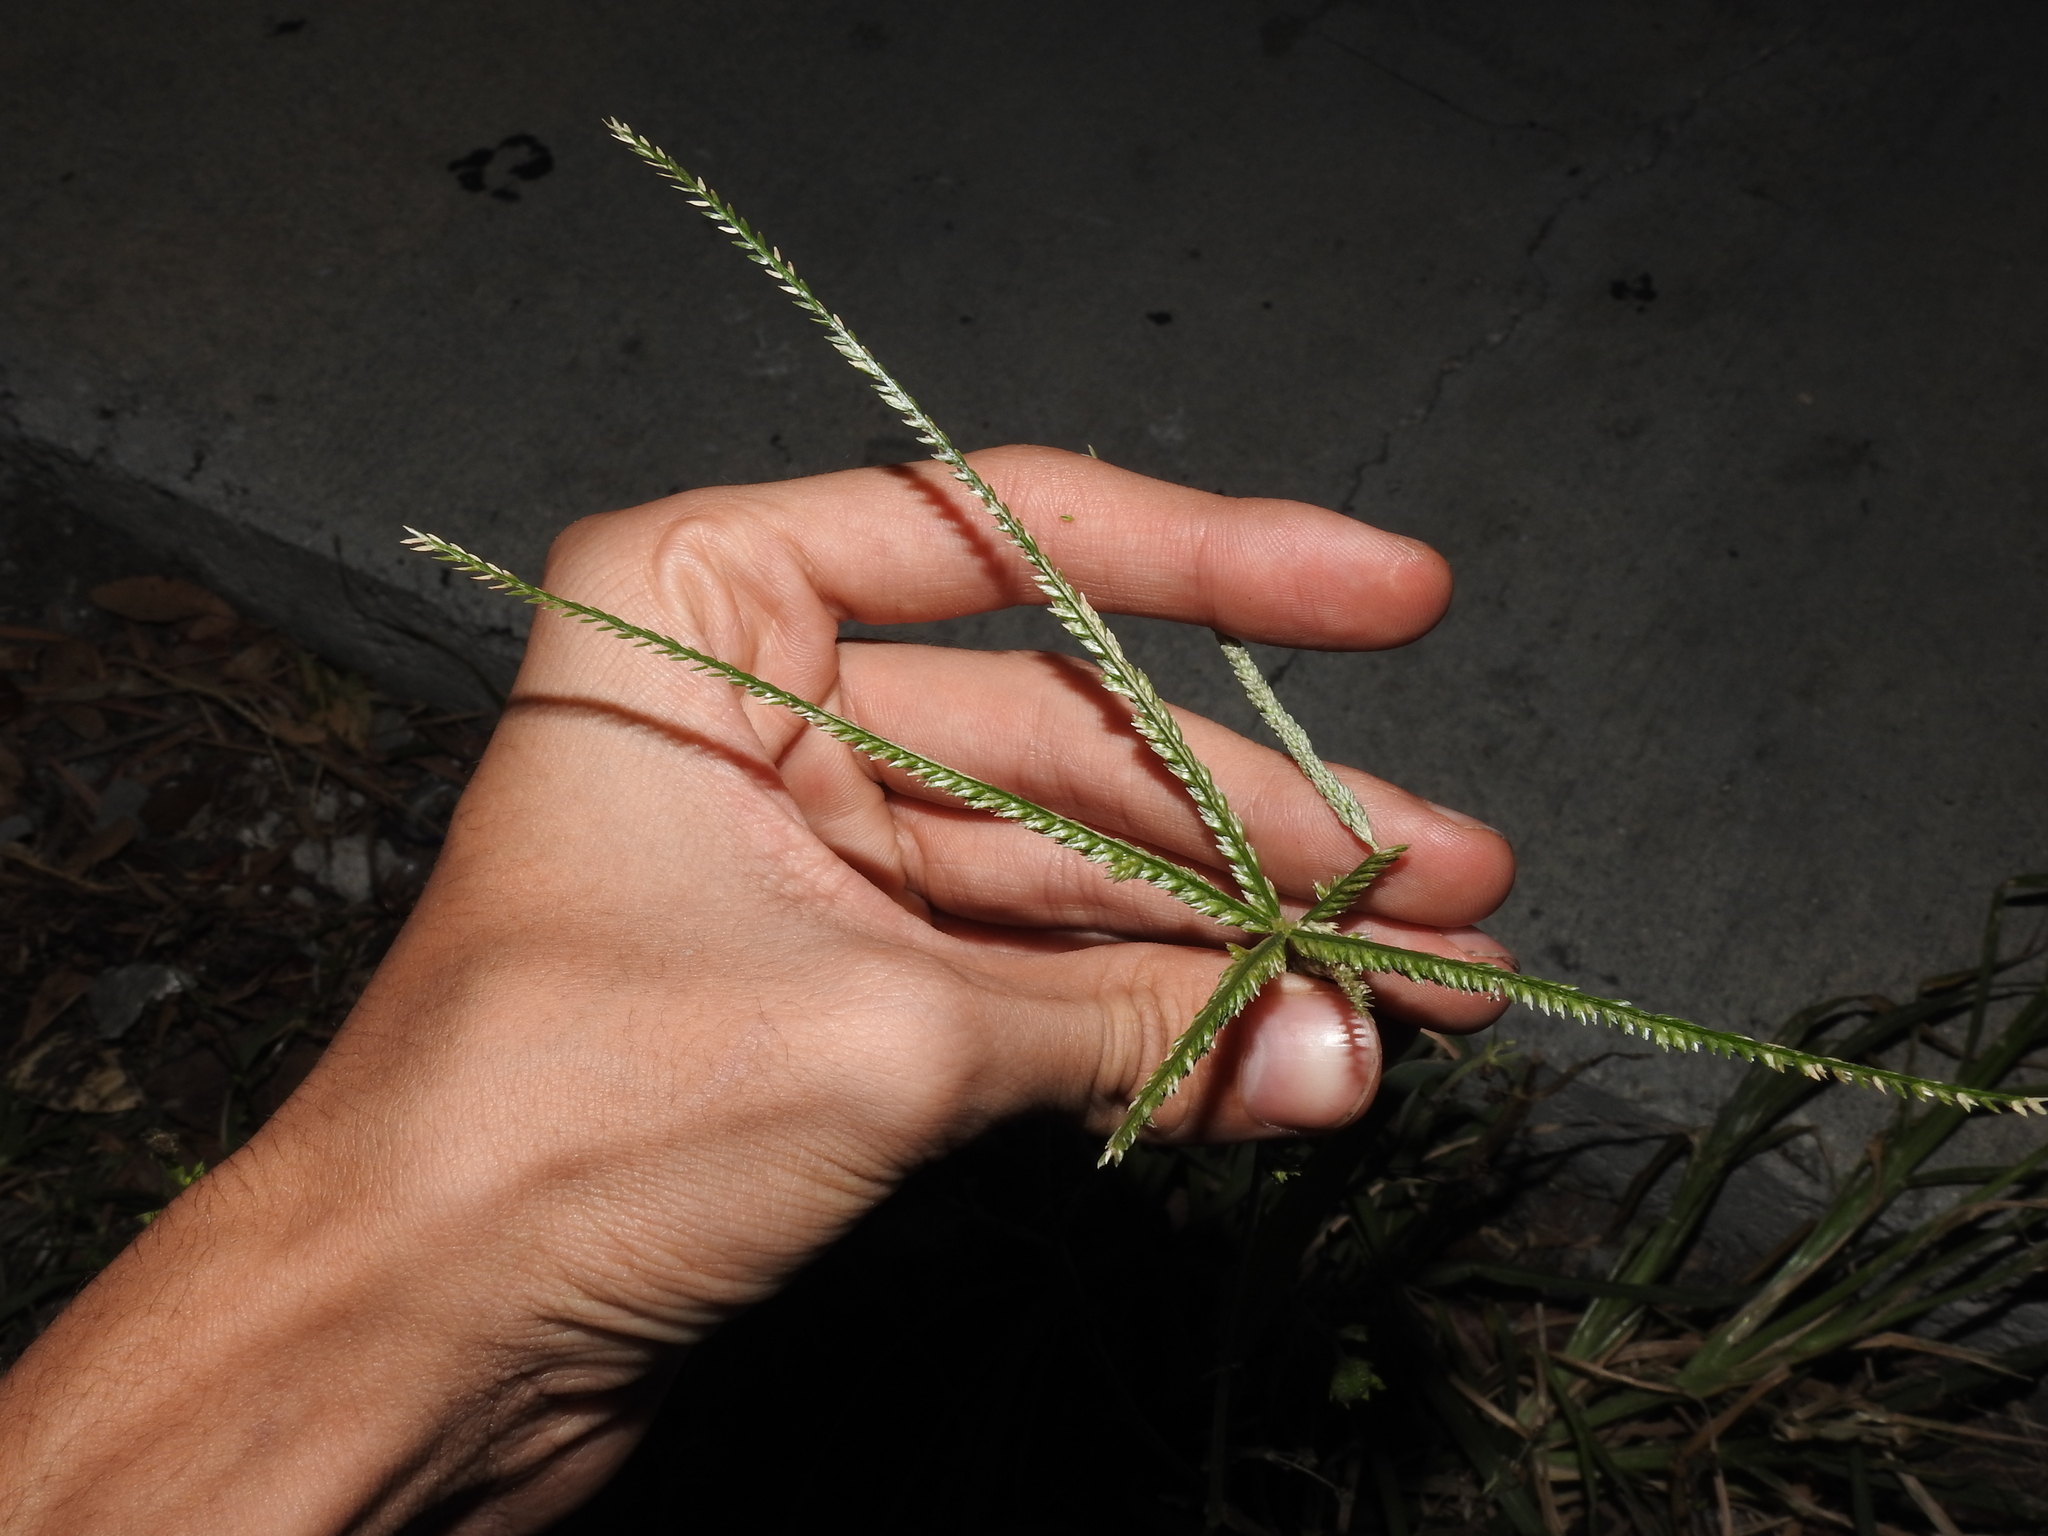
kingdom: Plantae
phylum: Tracheophyta
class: Liliopsida
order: Poales
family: Poaceae
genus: Eleusine
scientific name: Eleusine indica
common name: Yard-grass
